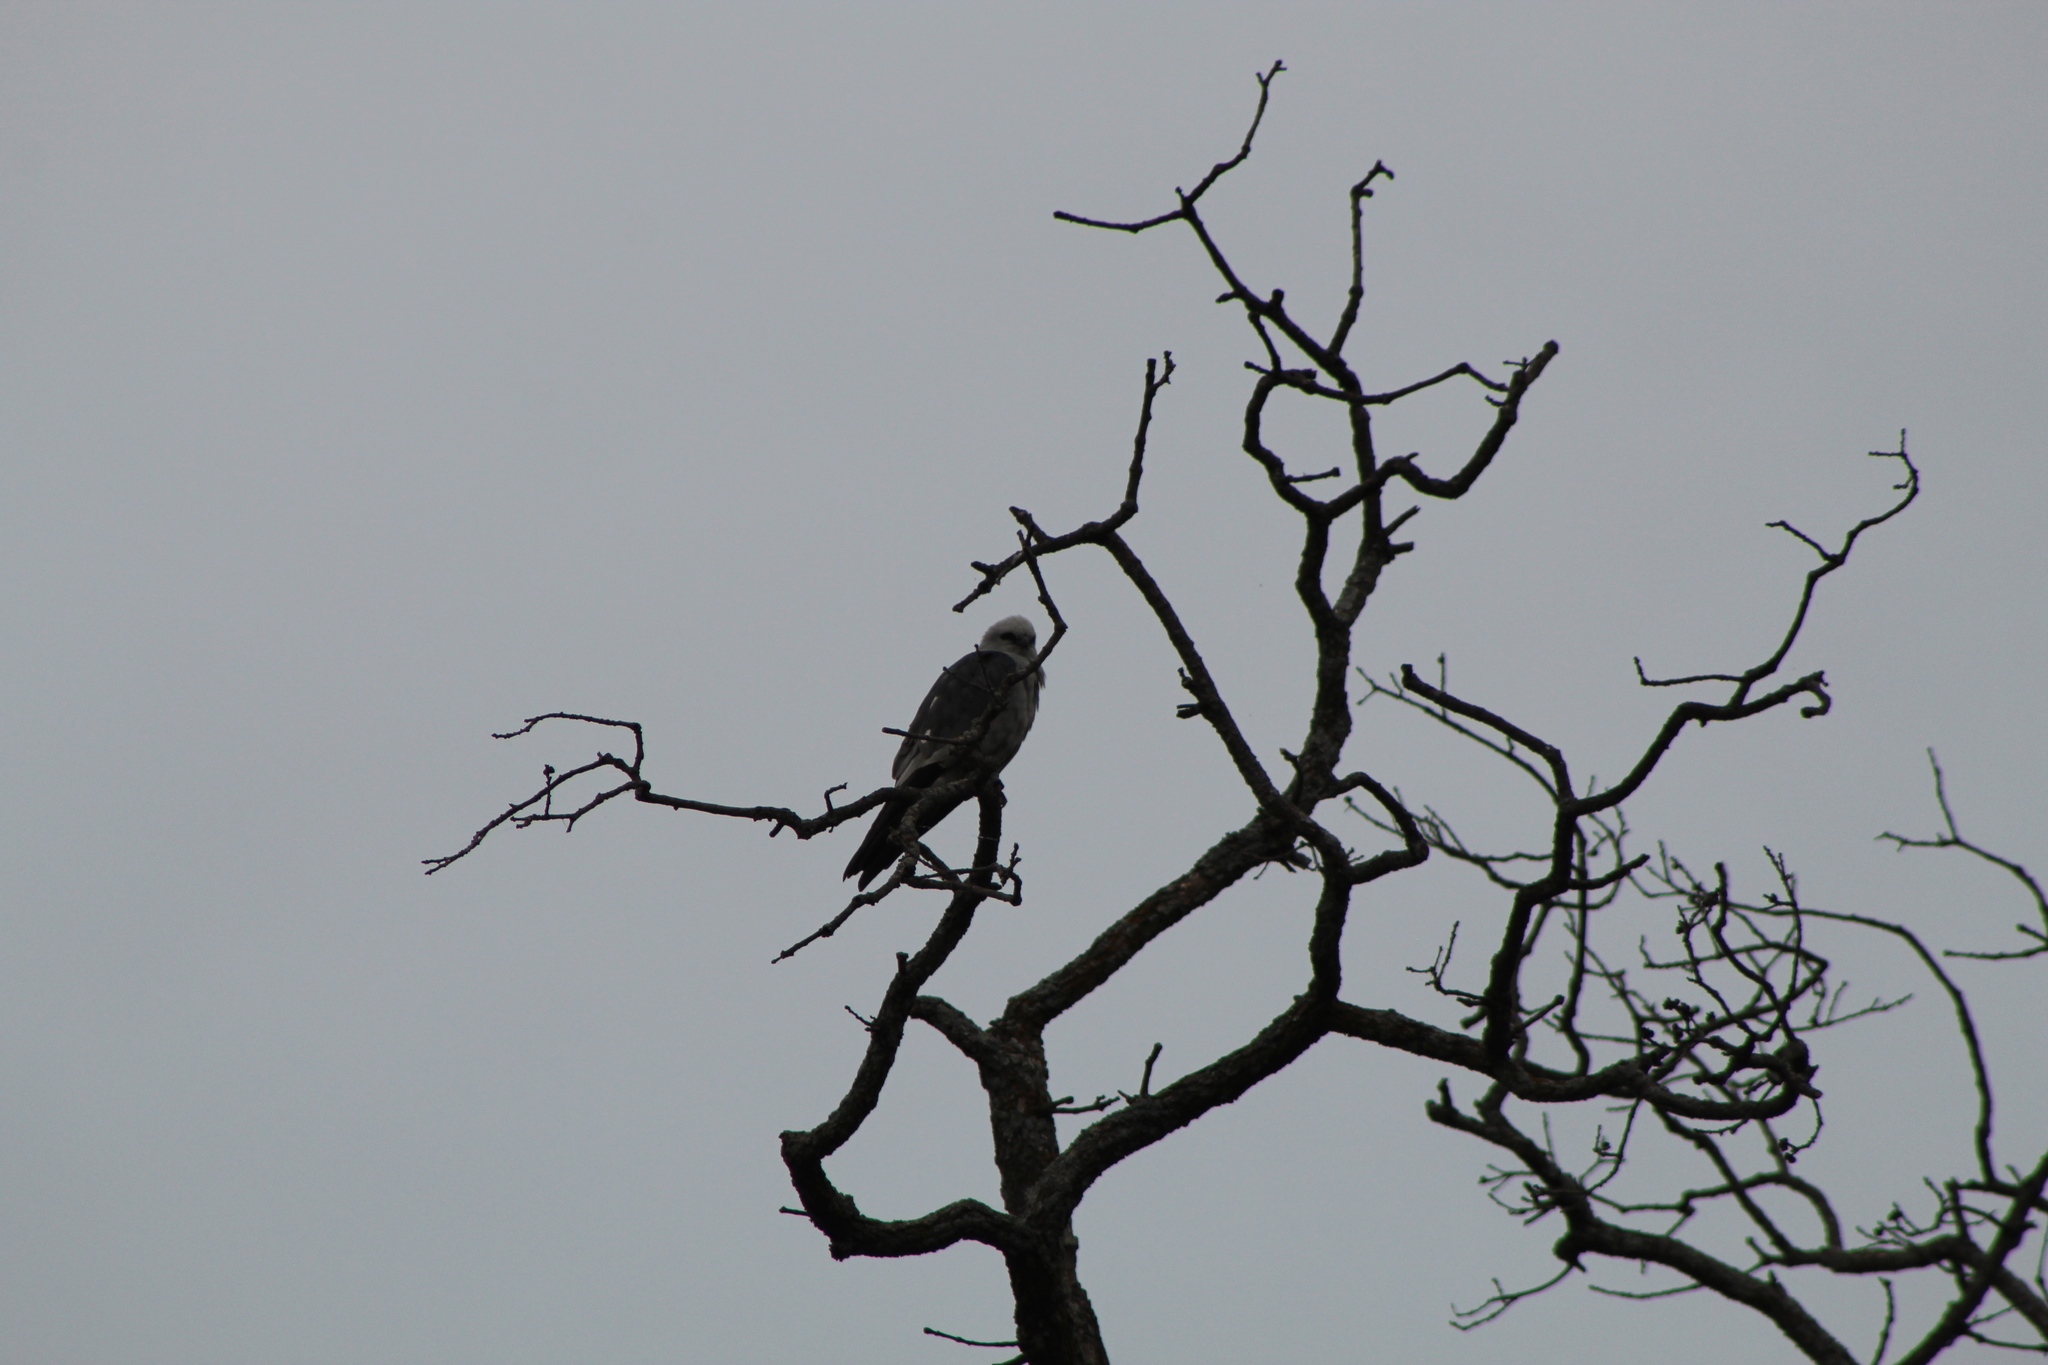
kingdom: Animalia
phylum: Chordata
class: Aves
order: Accipitriformes
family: Accipitridae
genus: Ictinia
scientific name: Ictinia mississippiensis
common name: Mississippi kite
